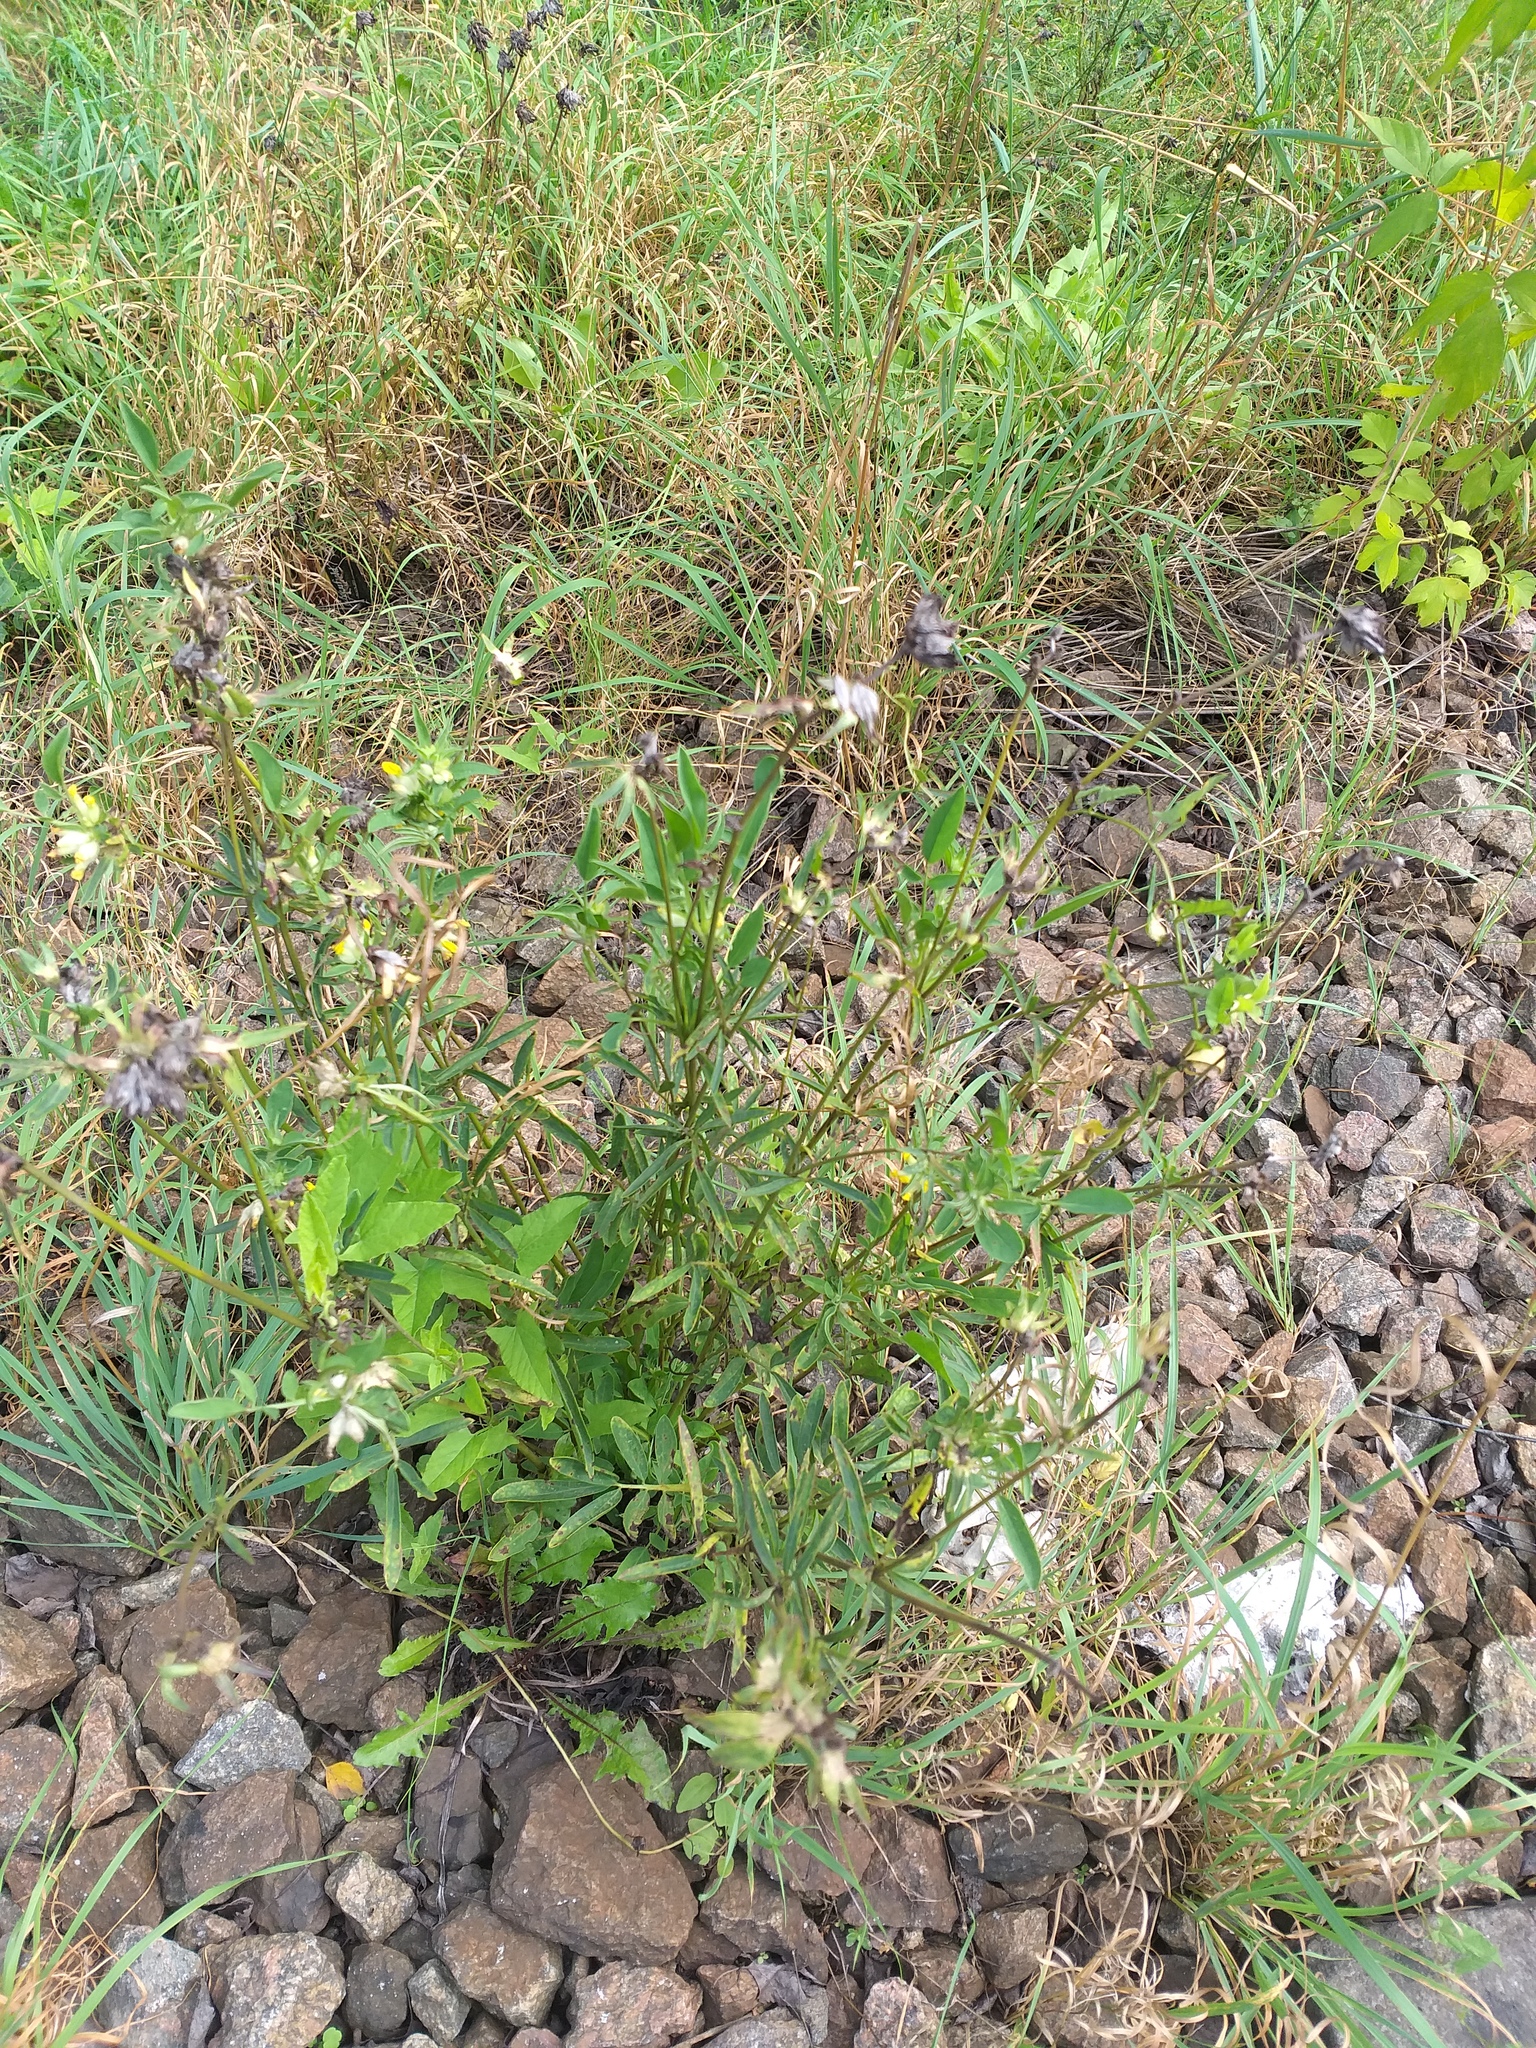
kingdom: Plantae
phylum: Tracheophyta
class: Magnoliopsida
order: Fabales
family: Fabaceae
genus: Anthyllis
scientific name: Anthyllis vulneraria
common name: Kidney vetch
